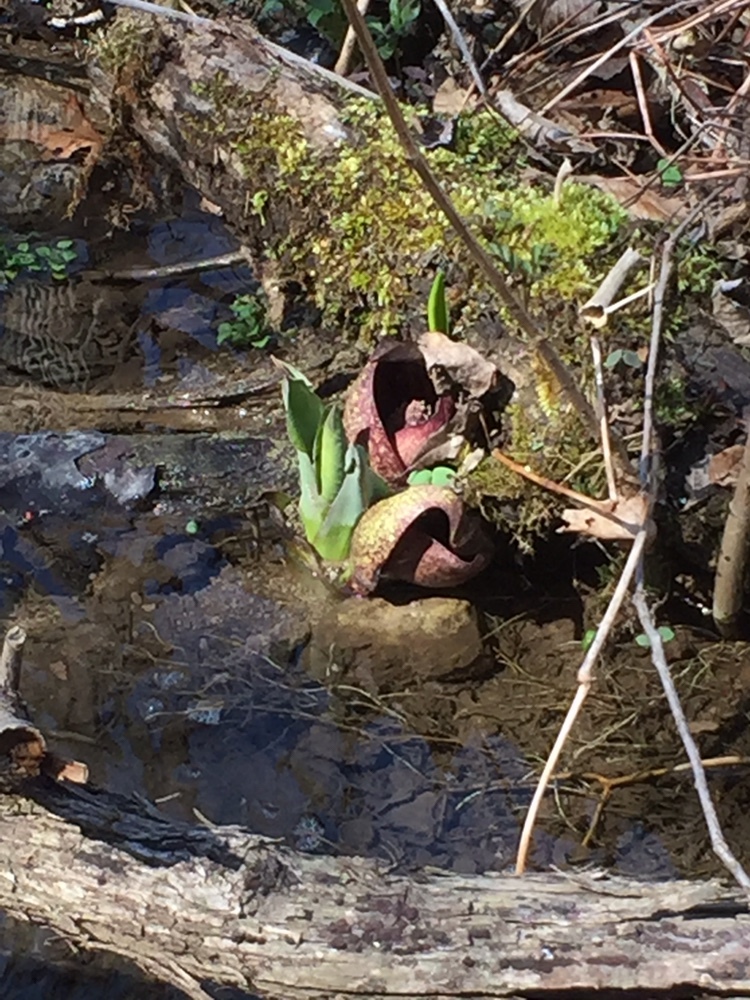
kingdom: Plantae
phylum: Tracheophyta
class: Liliopsida
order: Alismatales
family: Araceae
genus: Symplocarpus
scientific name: Symplocarpus foetidus
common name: Eastern skunk cabbage
